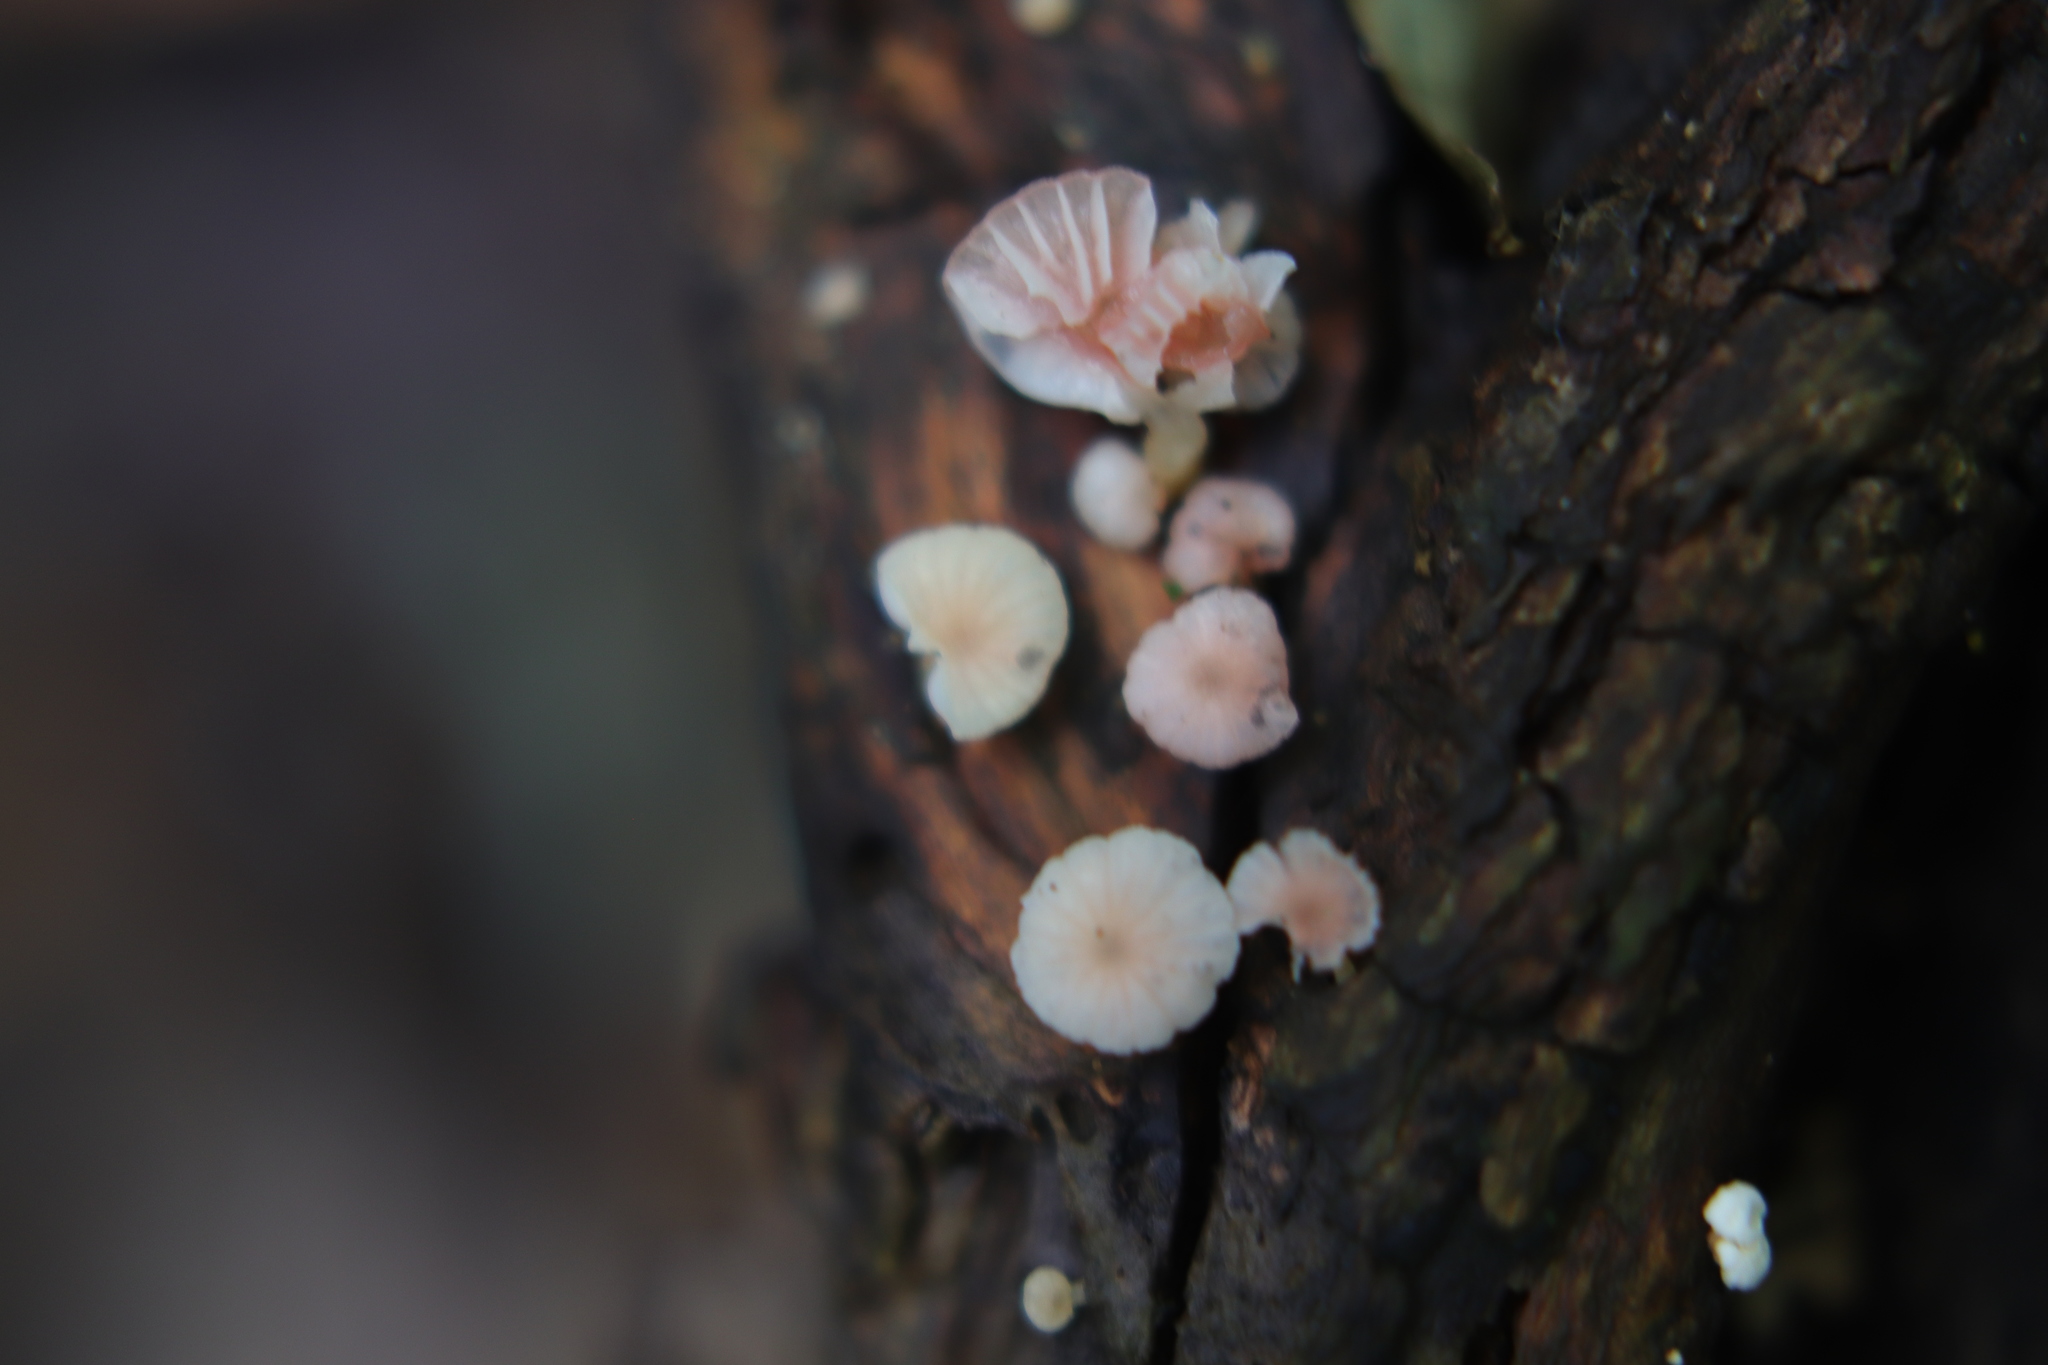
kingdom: Fungi
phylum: Basidiomycota
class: Agaricomycetes
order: Agaricales
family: Mycenaceae
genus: Mycena
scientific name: Mycena roseoflava
